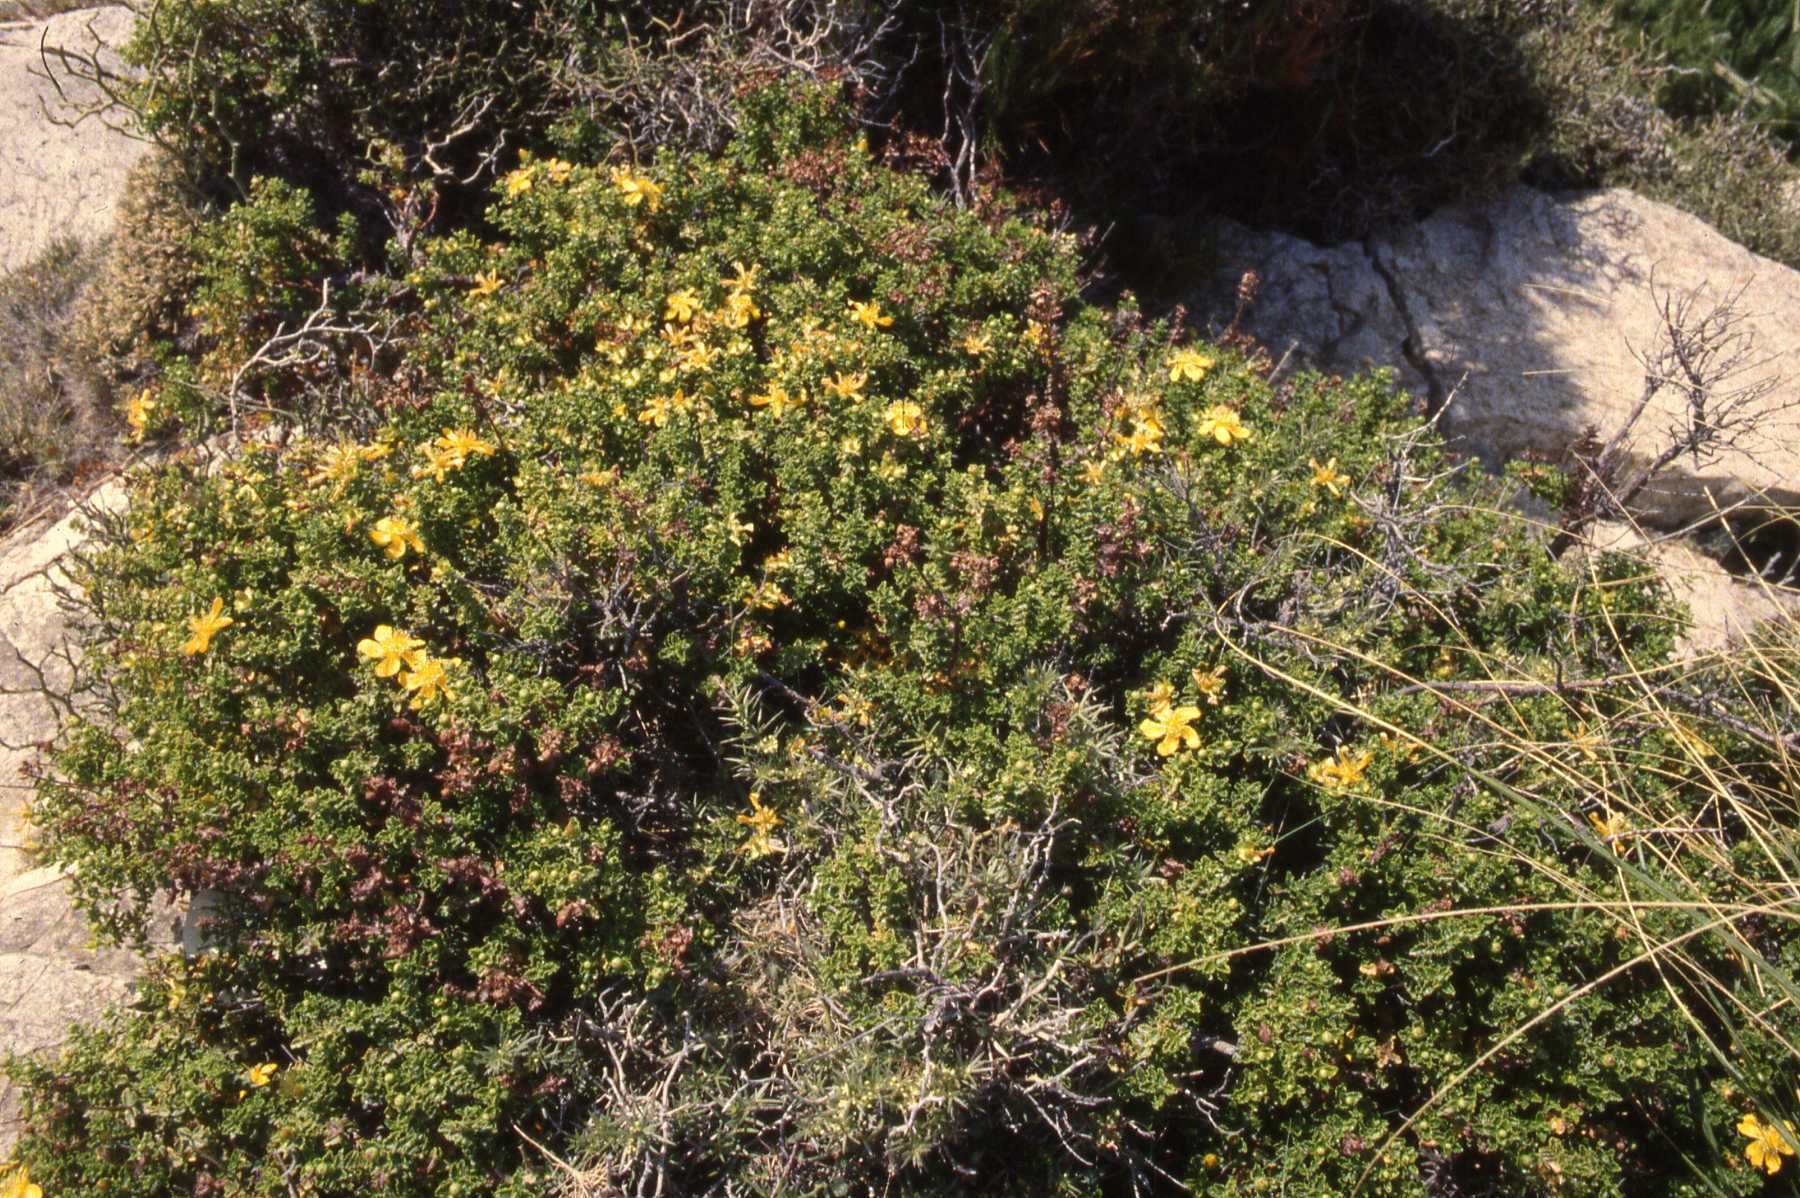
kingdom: Plantae
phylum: Tracheophyta
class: Magnoliopsida
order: Malpighiales
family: Hypericaceae
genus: Hypericum
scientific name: Hypericum balearicum
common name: Majorca st john's wort
